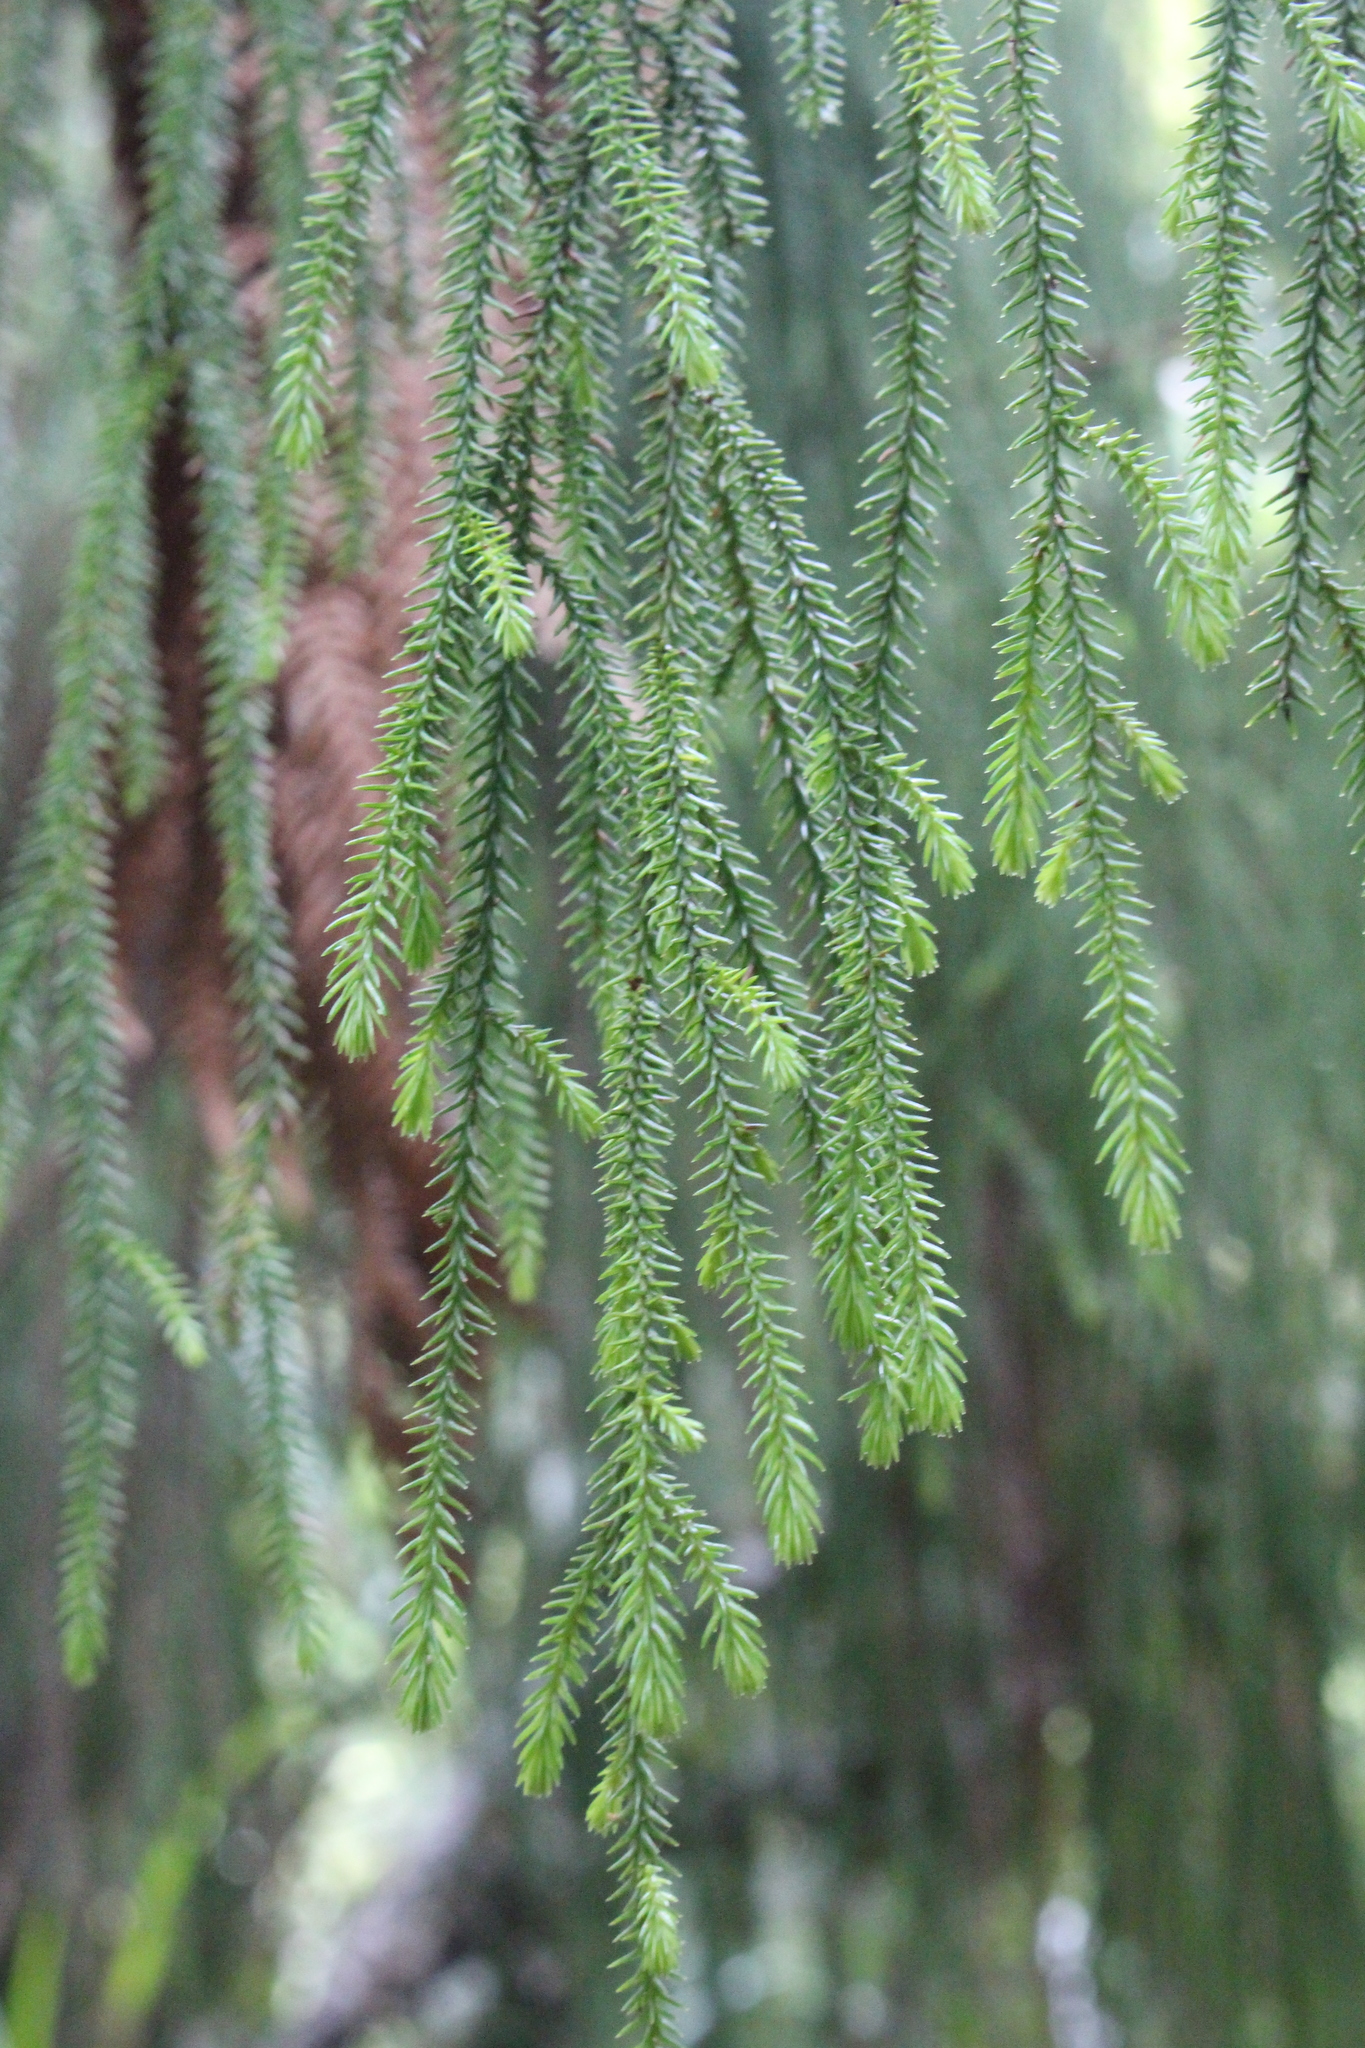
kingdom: Plantae
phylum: Tracheophyta
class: Pinopsida
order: Pinales
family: Podocarpaceae
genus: Dacrydium
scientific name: Dacrydium cupressinum
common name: Red pine
